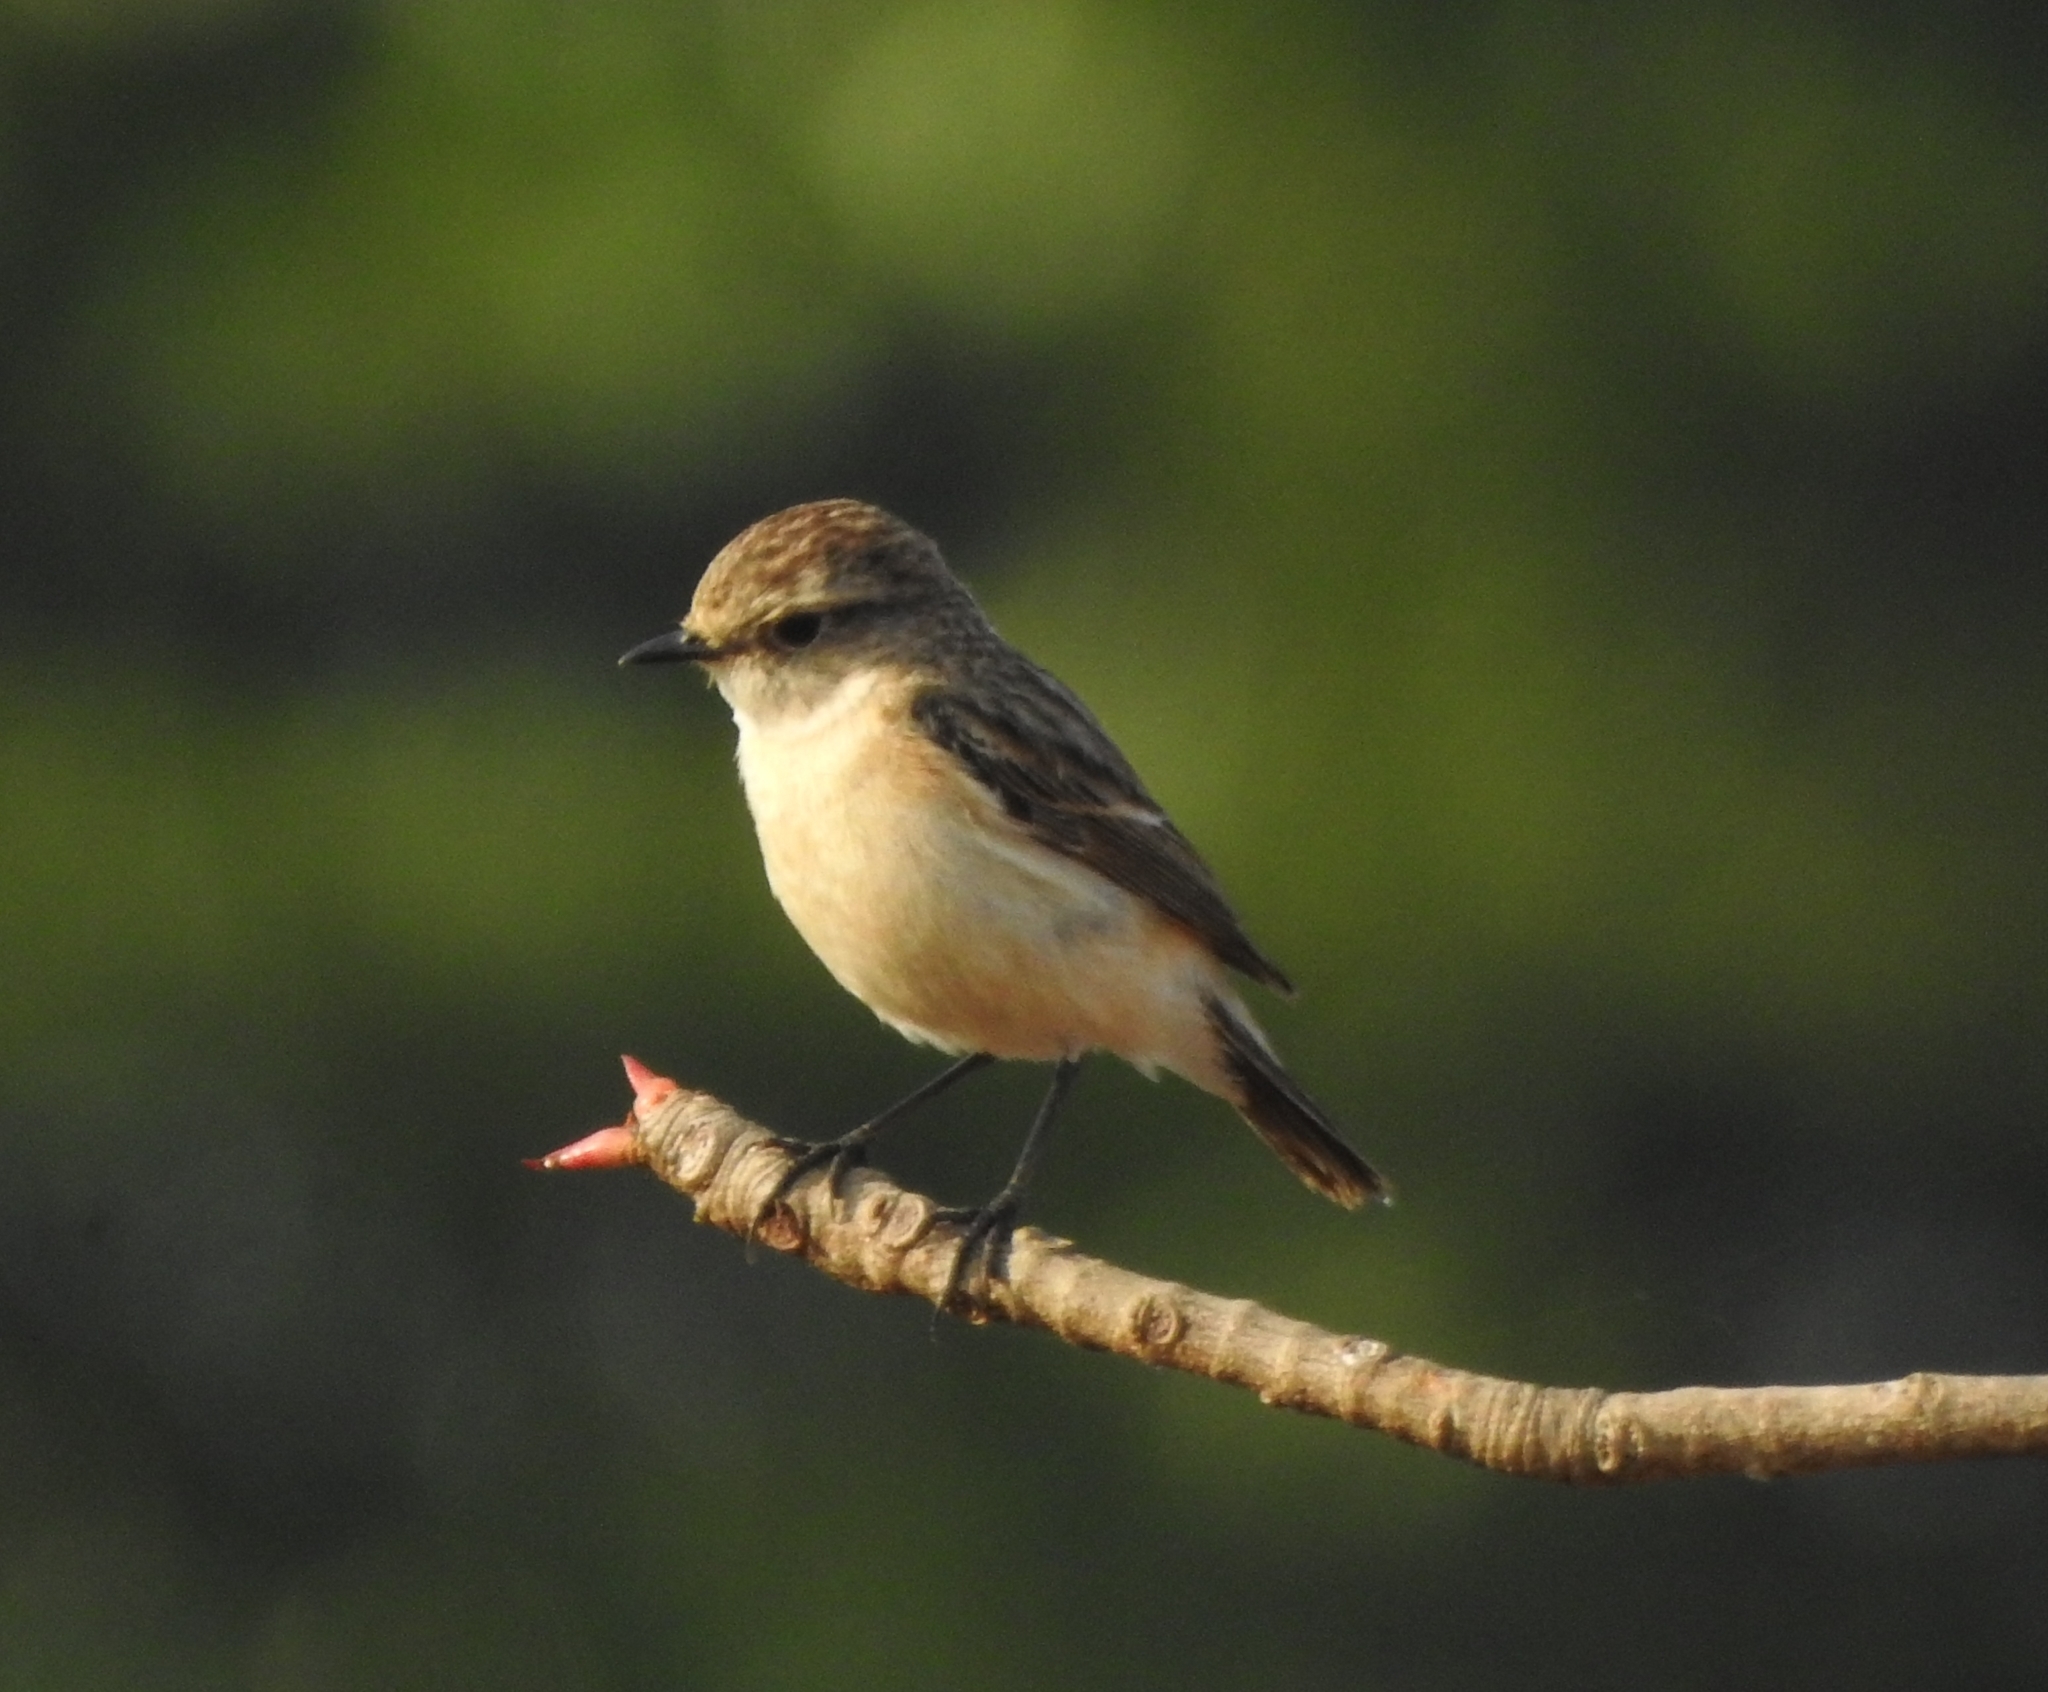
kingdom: Animalia
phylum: Chordata
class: Aves
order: Passeriformes
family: Muscicapidae
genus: Saxicola
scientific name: Saxicola maurus
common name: Siberian stonechat
